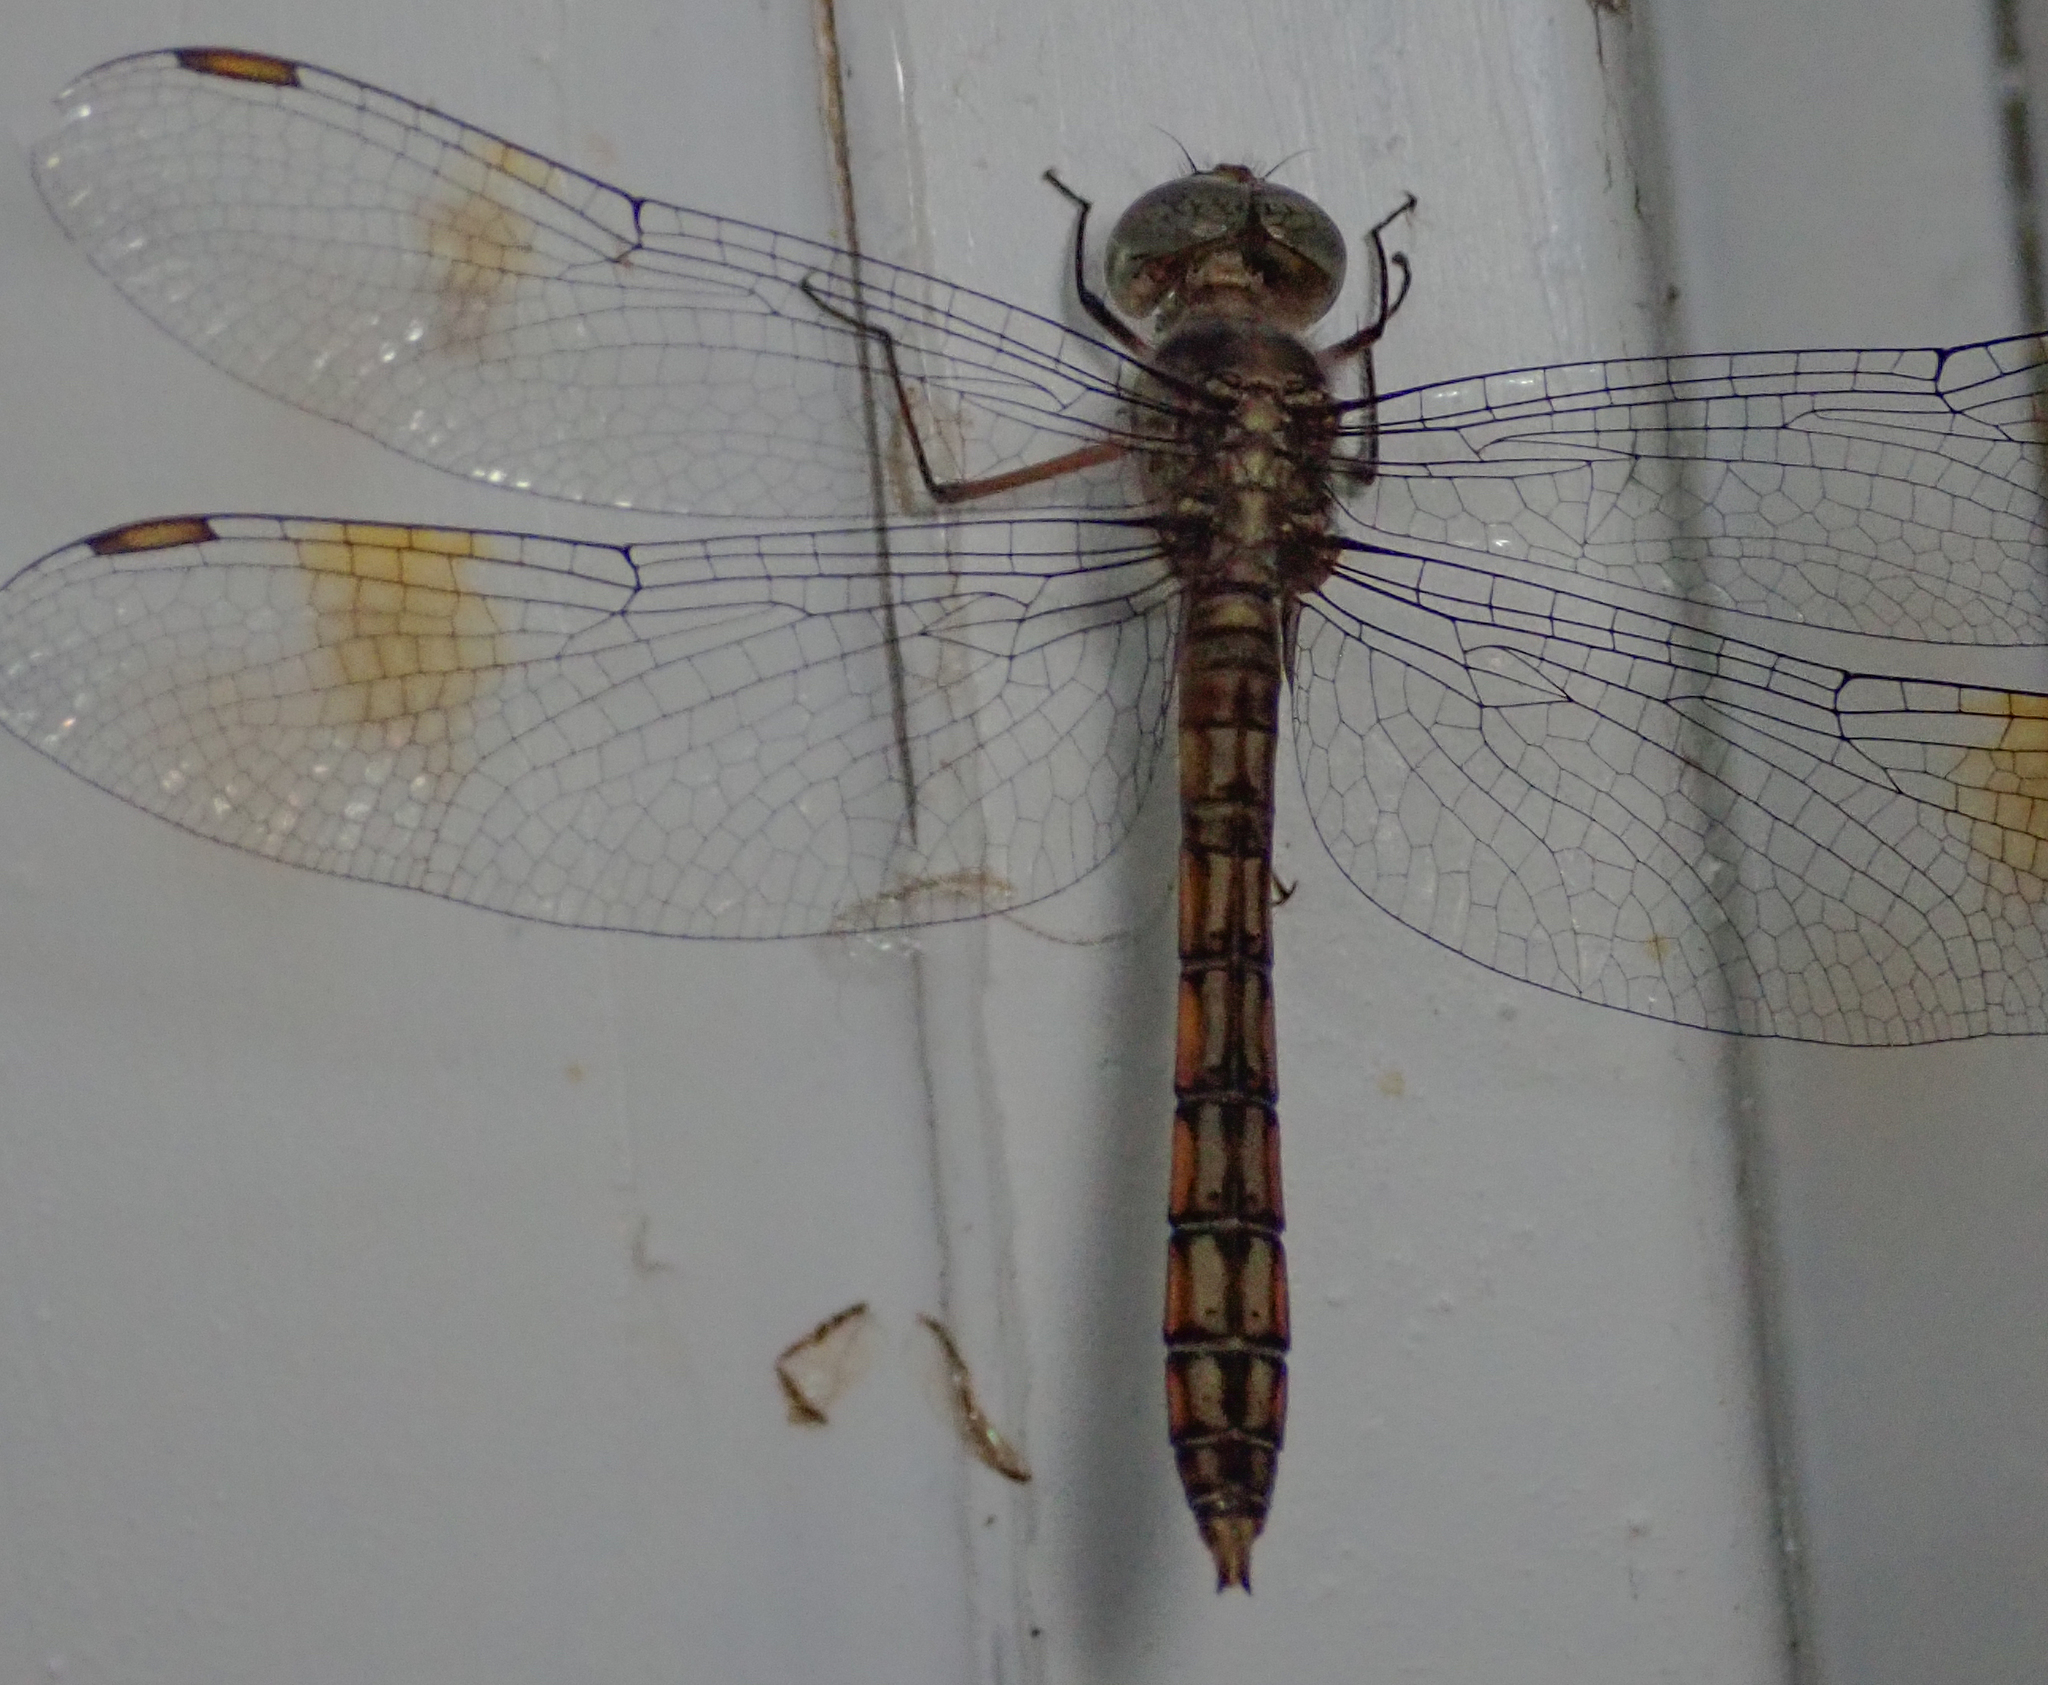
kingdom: Animalia
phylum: Arthropoda
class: Insecta
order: Odonata
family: Libellulidae
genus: Parazyxomma
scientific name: Parazyxomma flavicans
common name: Banded duskdarter
